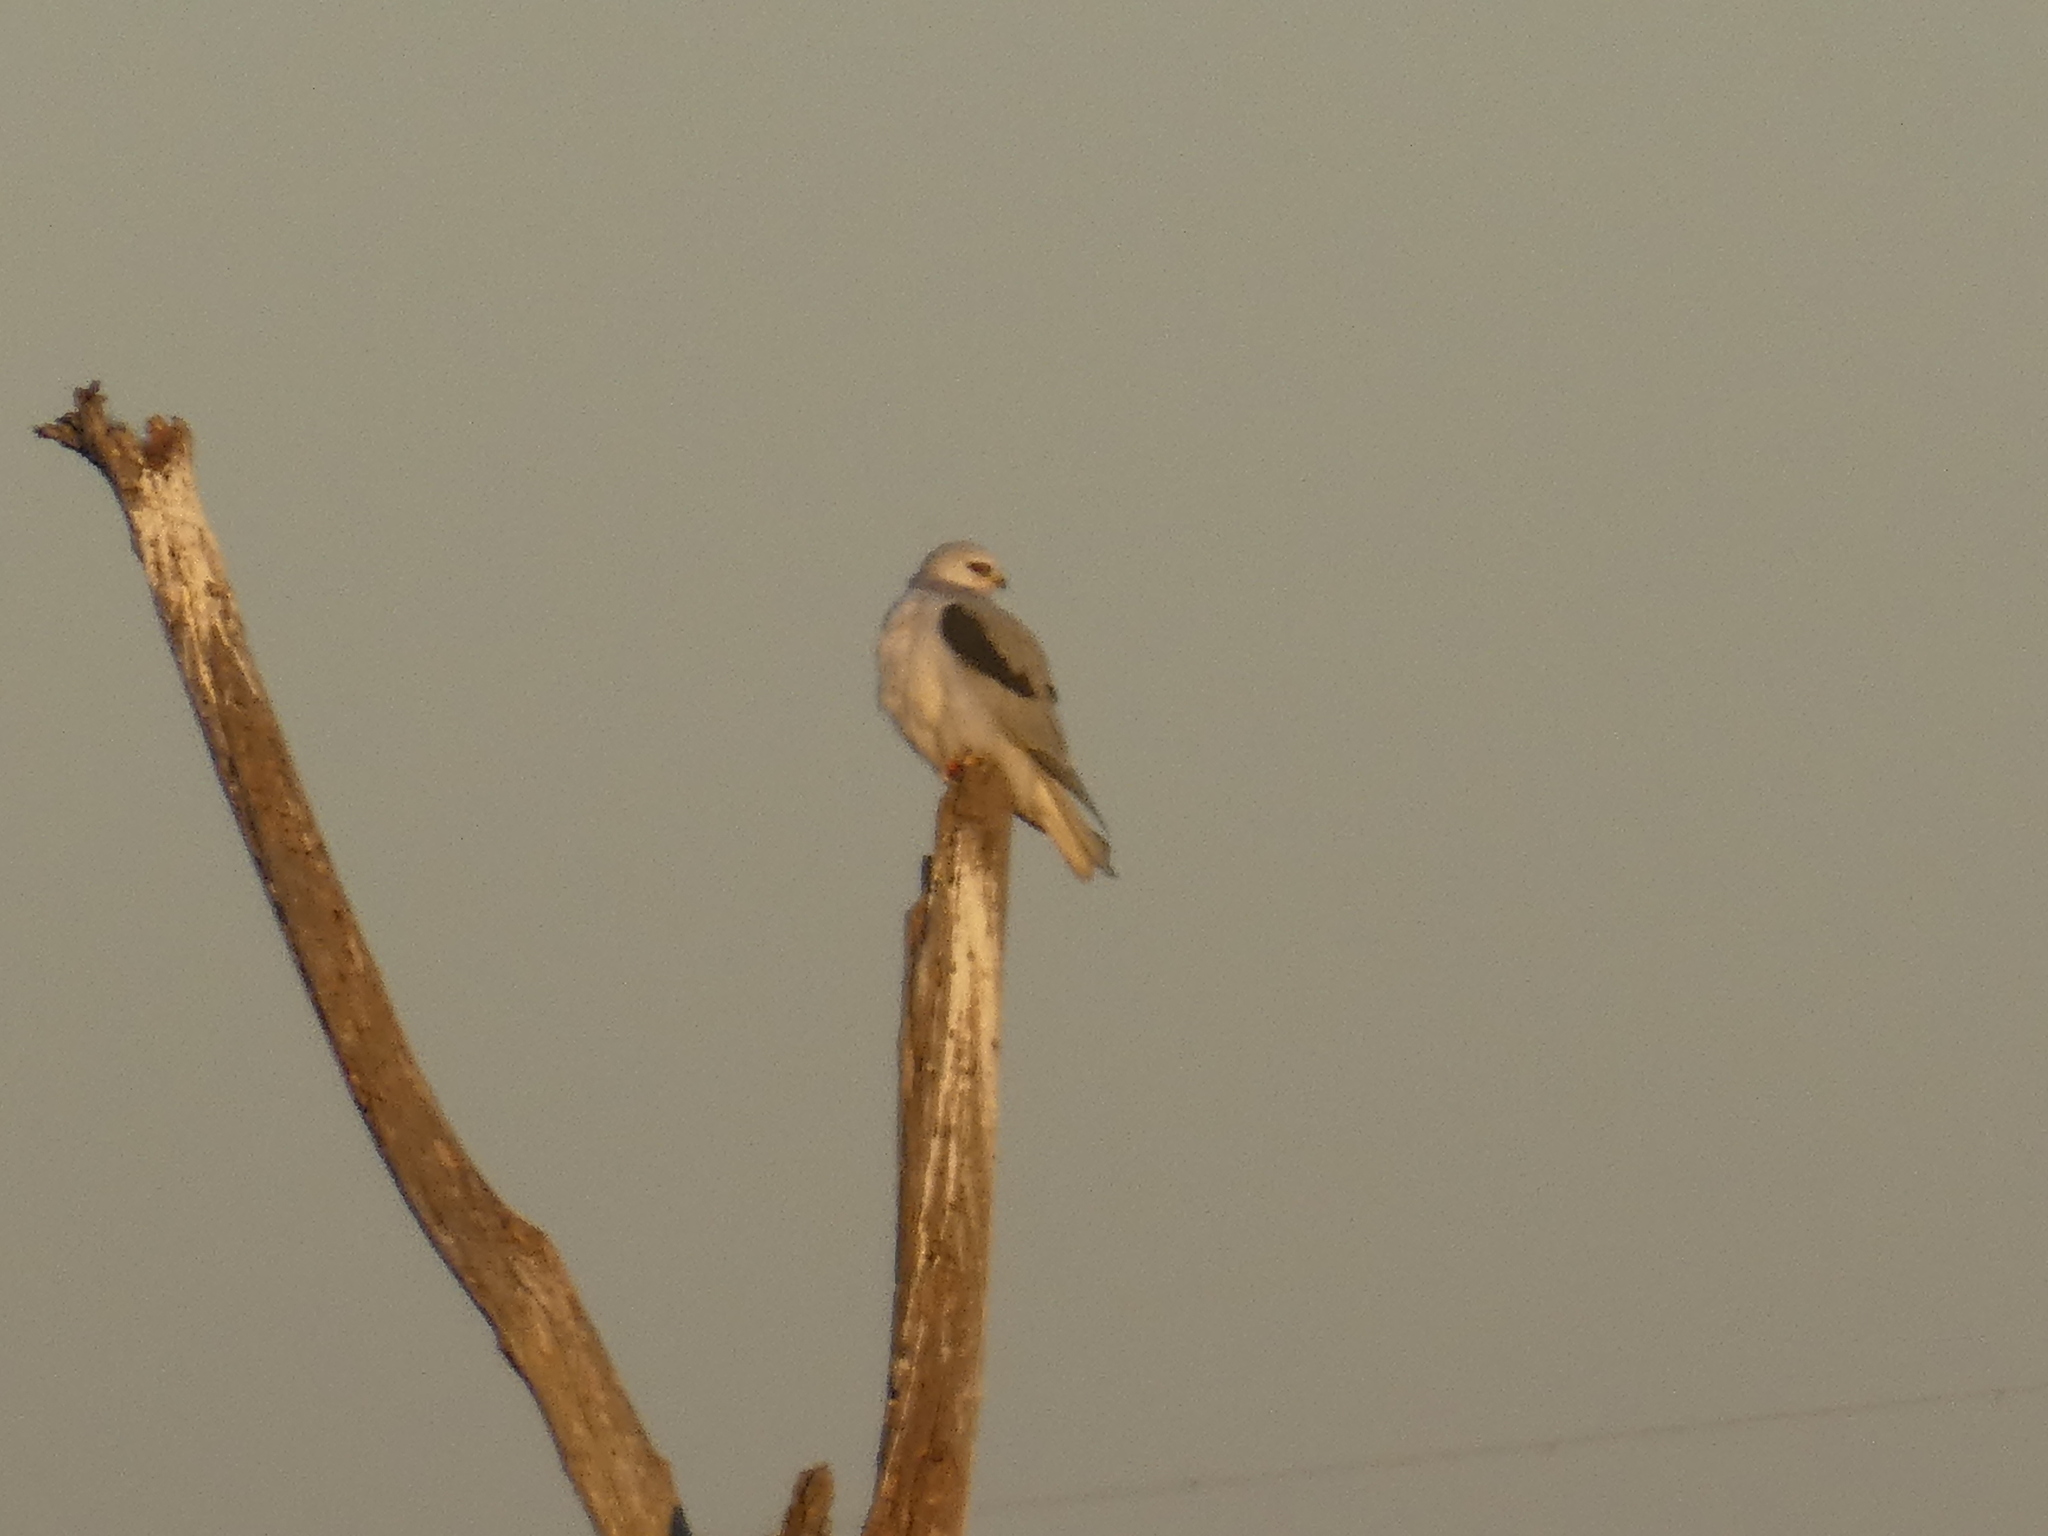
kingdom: Animalia
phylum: Chordata
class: Aves
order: Accipitriformes
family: Accipitridae
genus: Elanus
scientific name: Elanus leucurus
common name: White-tailed kite
